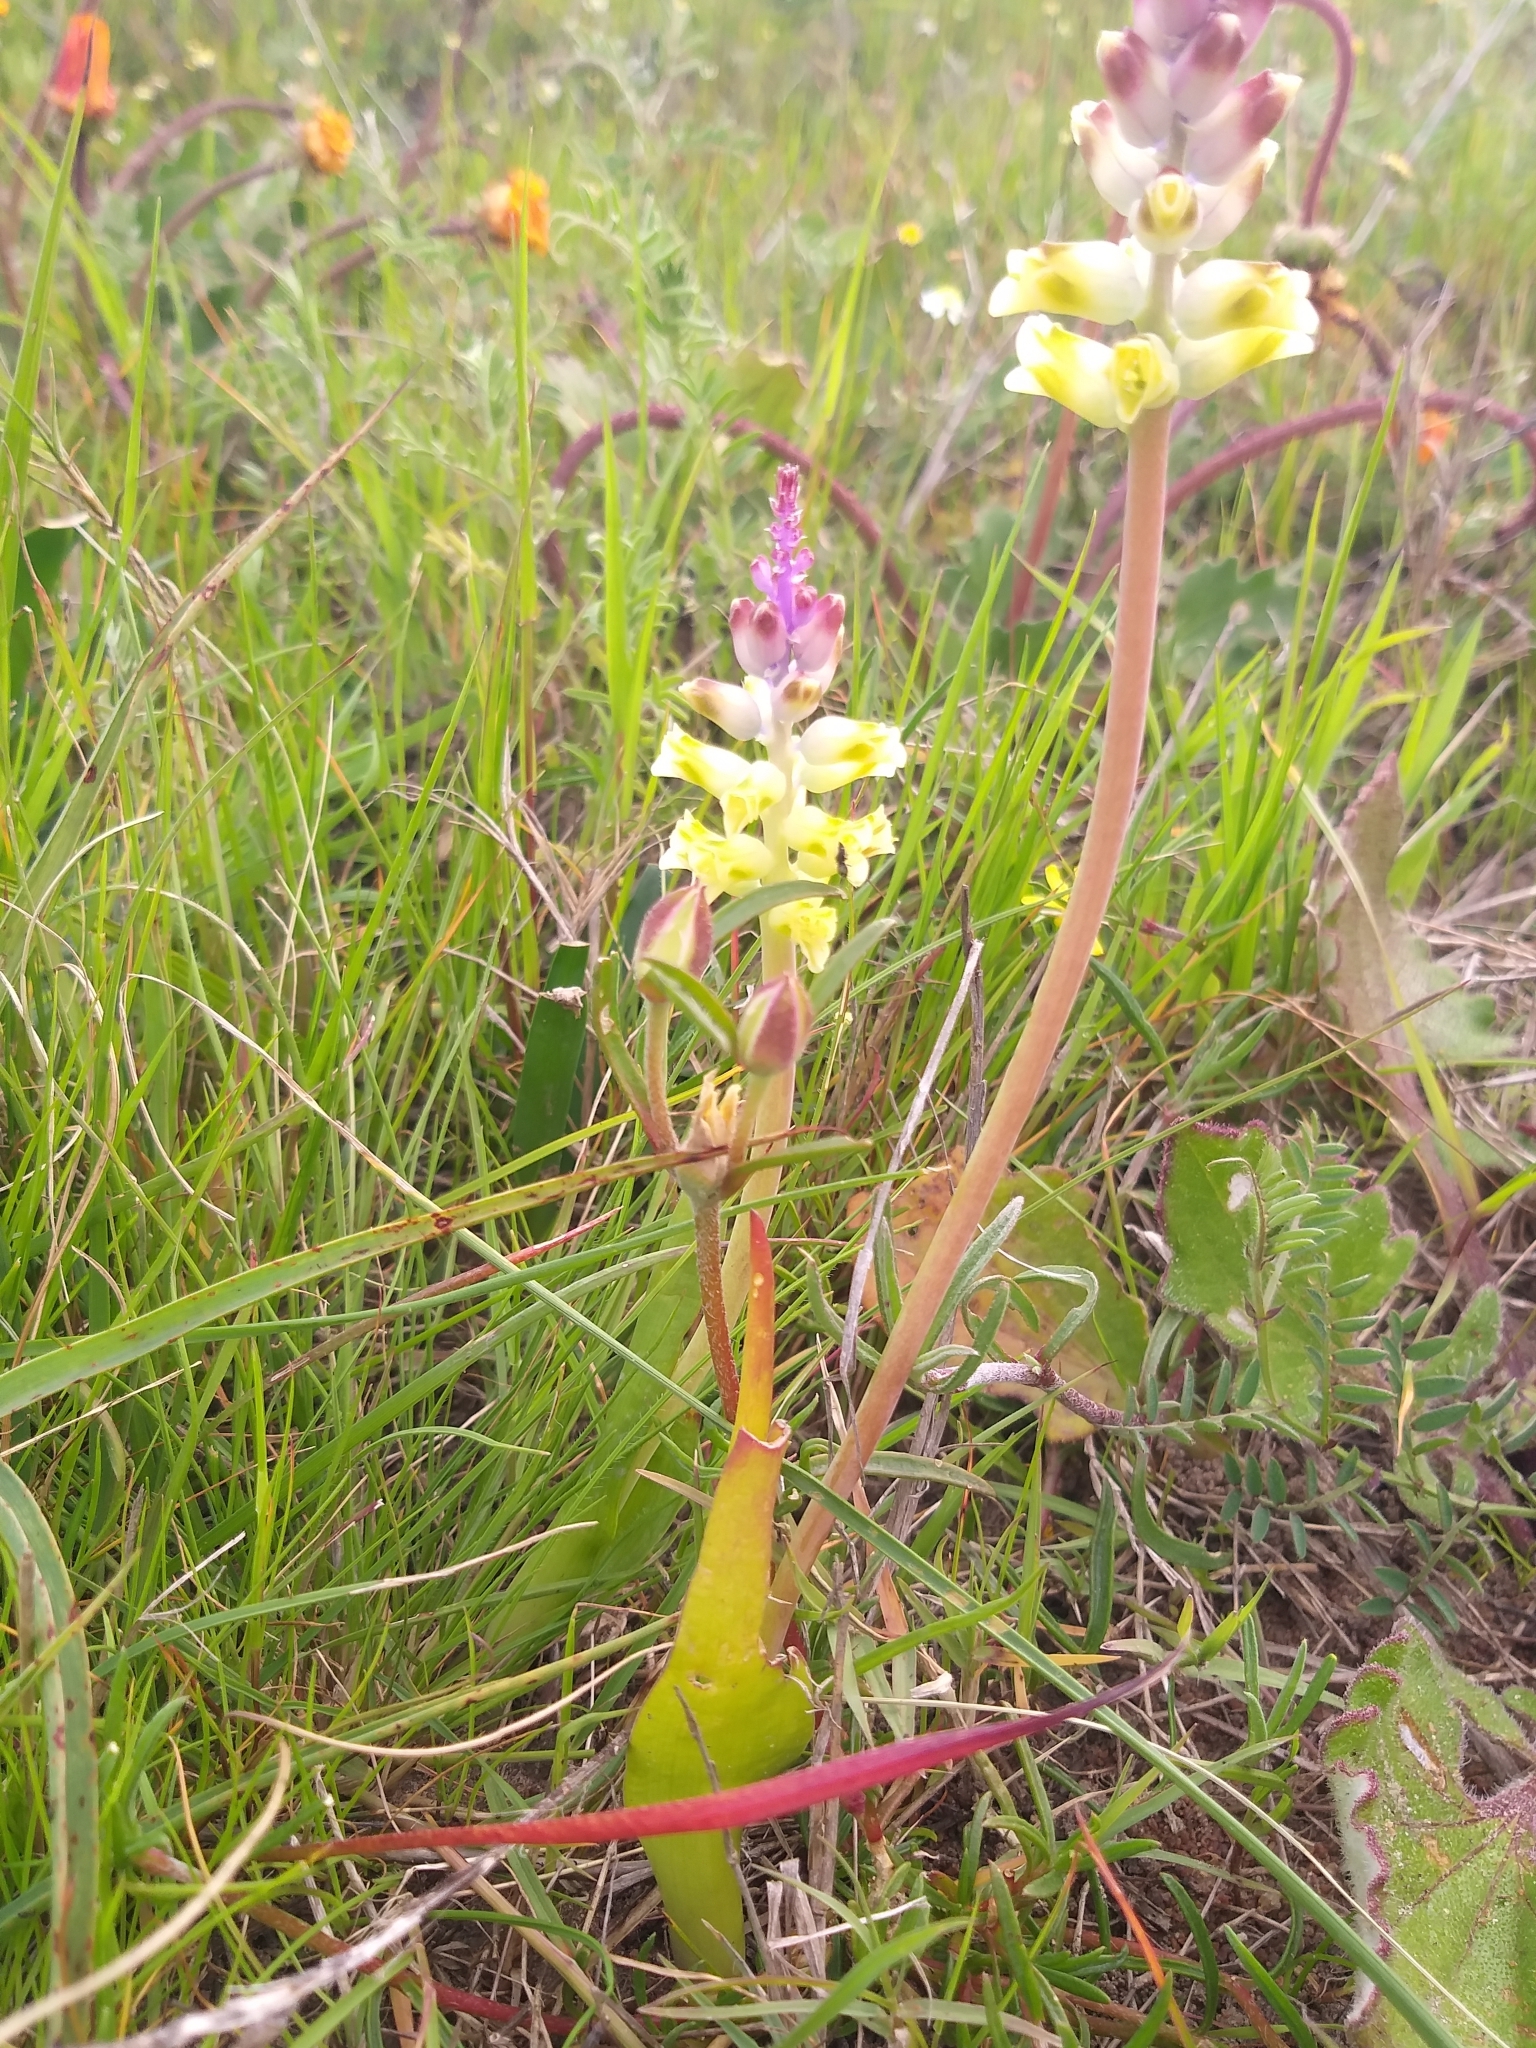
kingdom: Plantae
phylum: Tracheophyta
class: Liliopsida
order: Asparagales
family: Asparagaceae
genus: Lachenalia
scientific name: Lachenalia pallida
